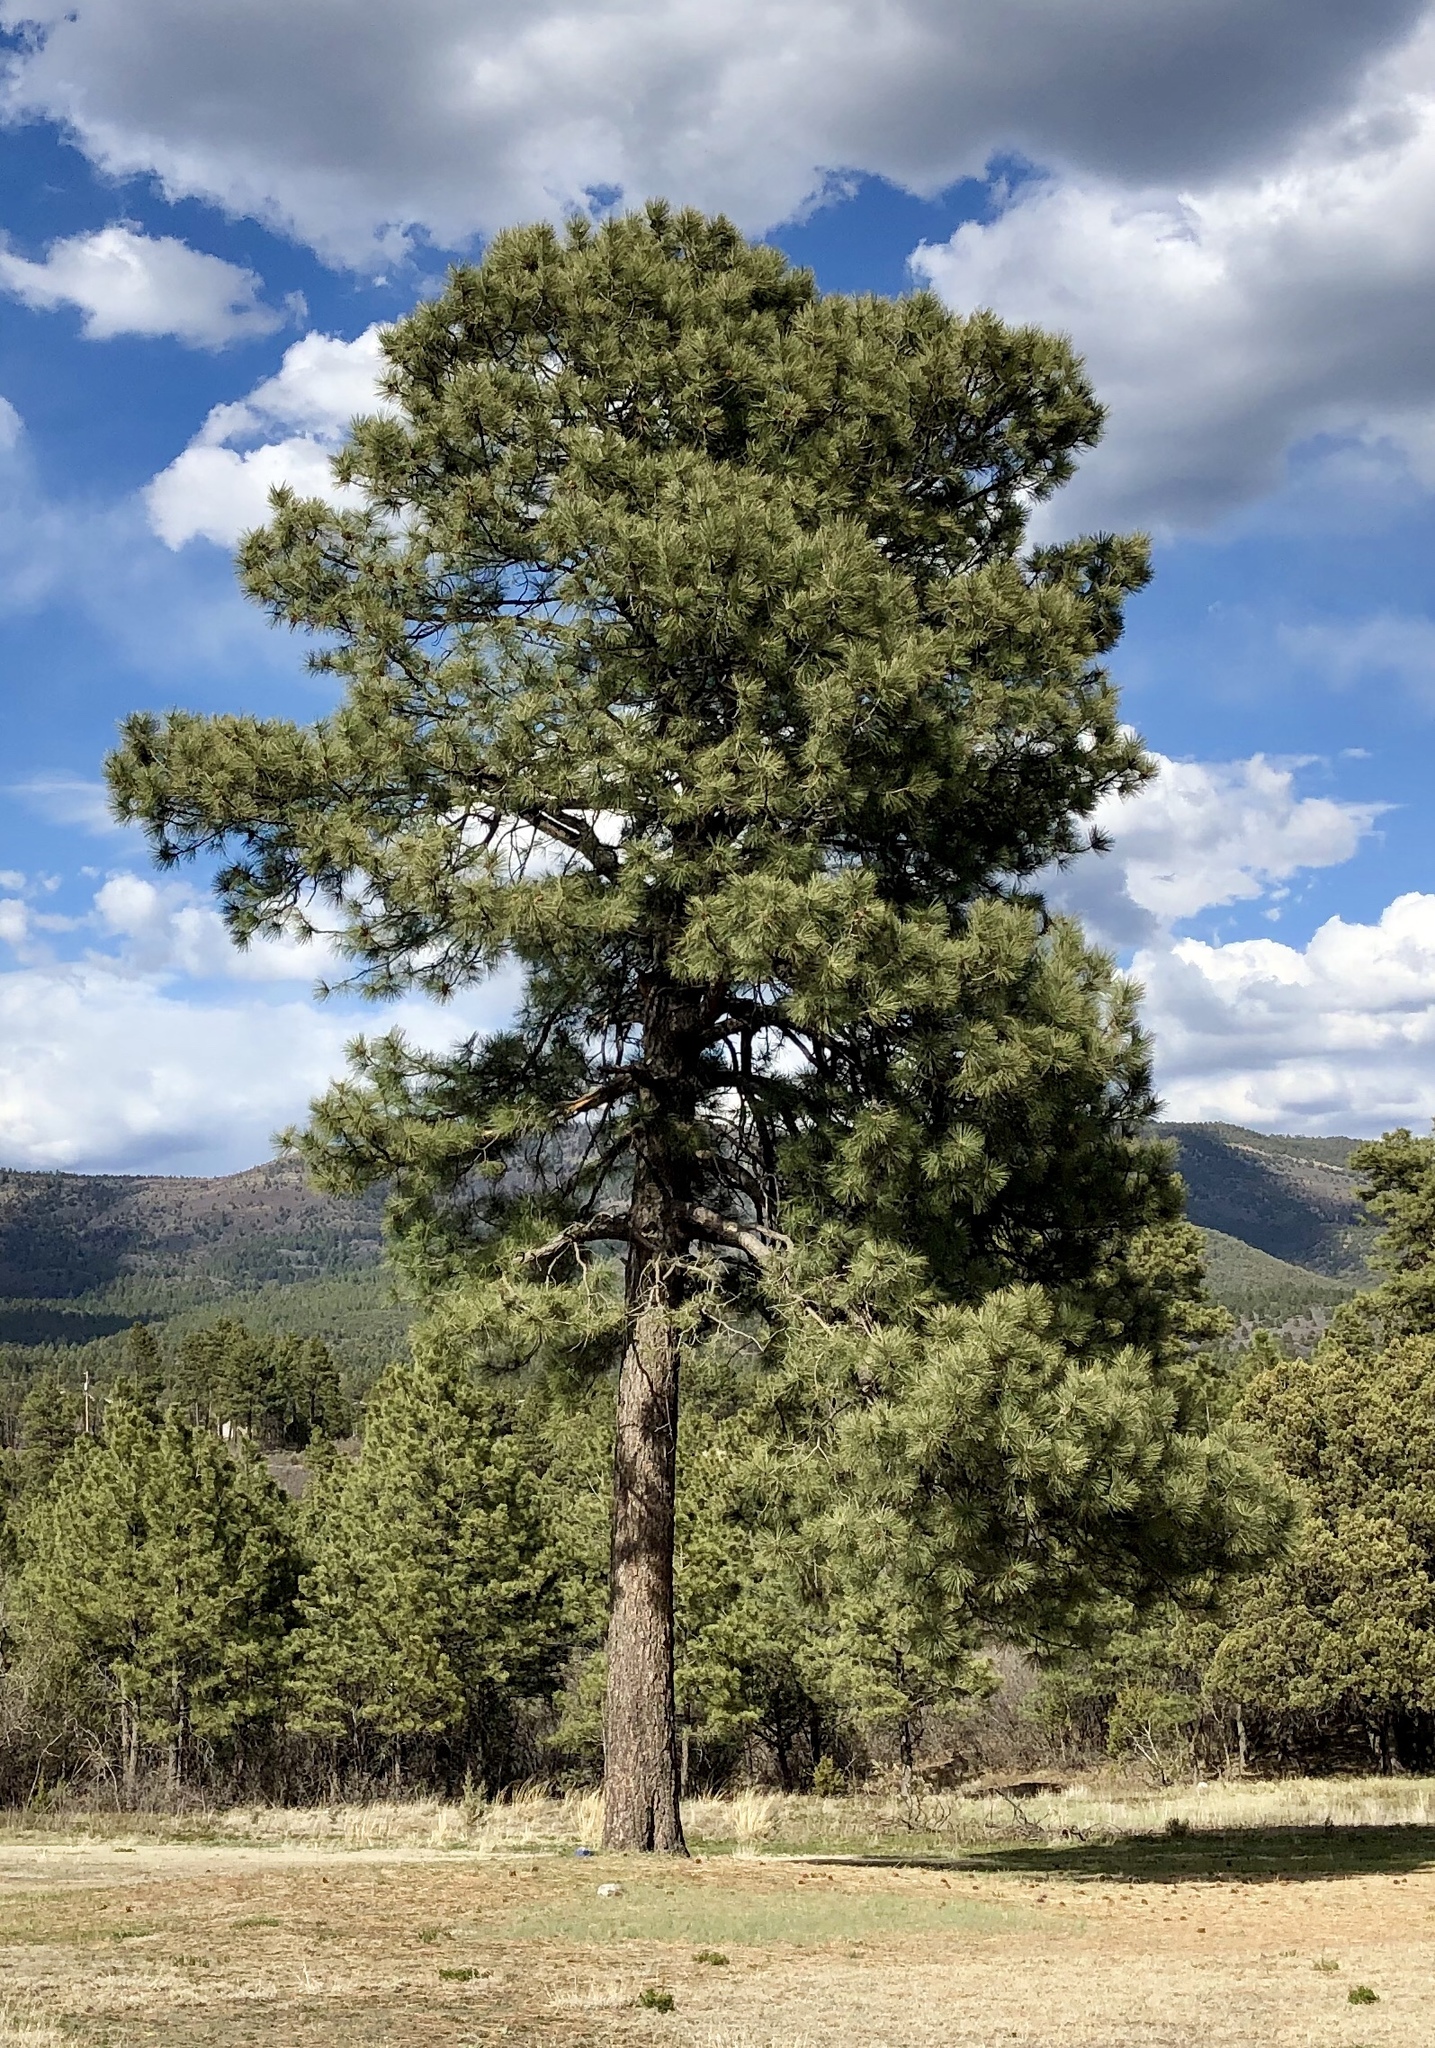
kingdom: Plantae
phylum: Tracheophyta
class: Pinopsida
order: Pinales
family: Pinaceae
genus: Pinus
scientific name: Pinus ponderosa
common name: Western yellow-pine
